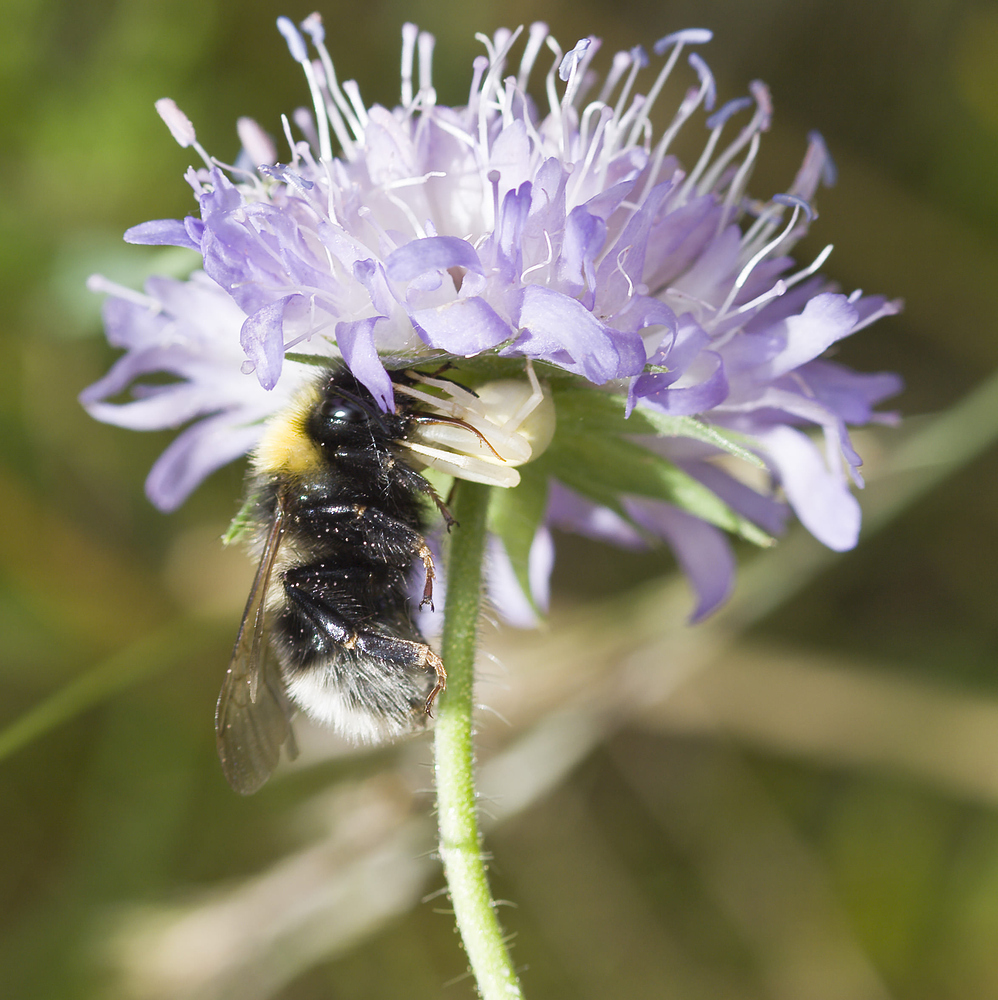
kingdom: Animalia
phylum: Arthropoda
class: Arachnida
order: Araneae
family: Thomisidae
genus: Misumena
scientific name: Misumena vatia
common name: Goldenrod crab spider
